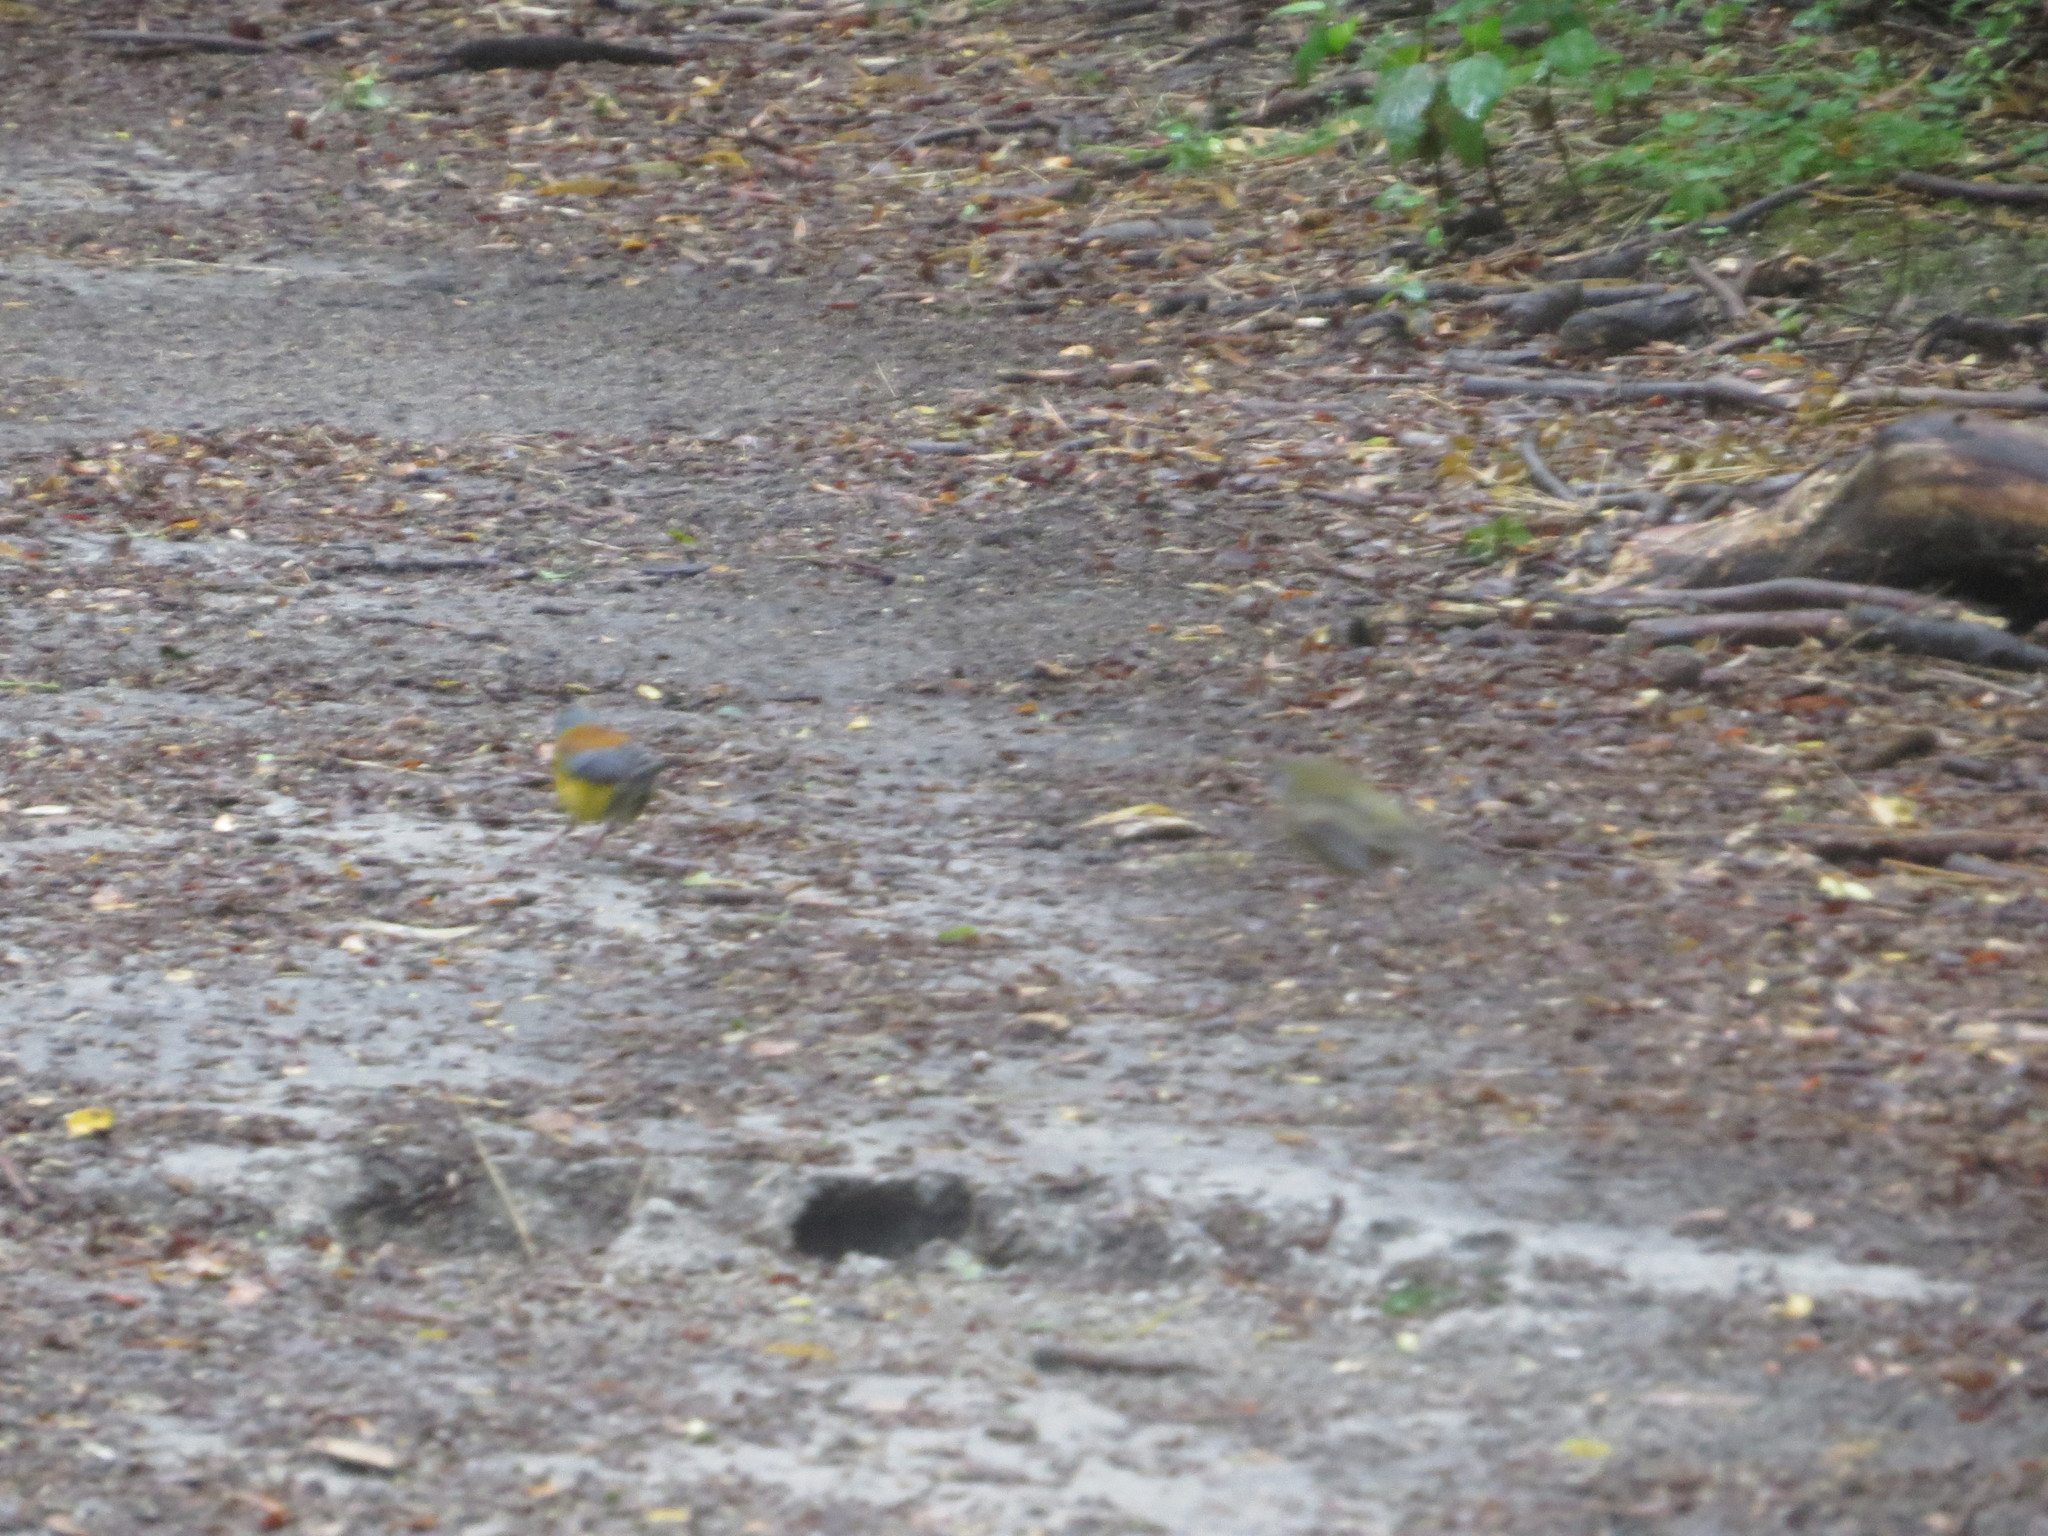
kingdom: Animalia
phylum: Chordata
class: Aves
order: Passeriformes
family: Thraupidae
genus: Phrygilus
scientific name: Phrygilus patagonicus
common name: Patagonian sierra finch
